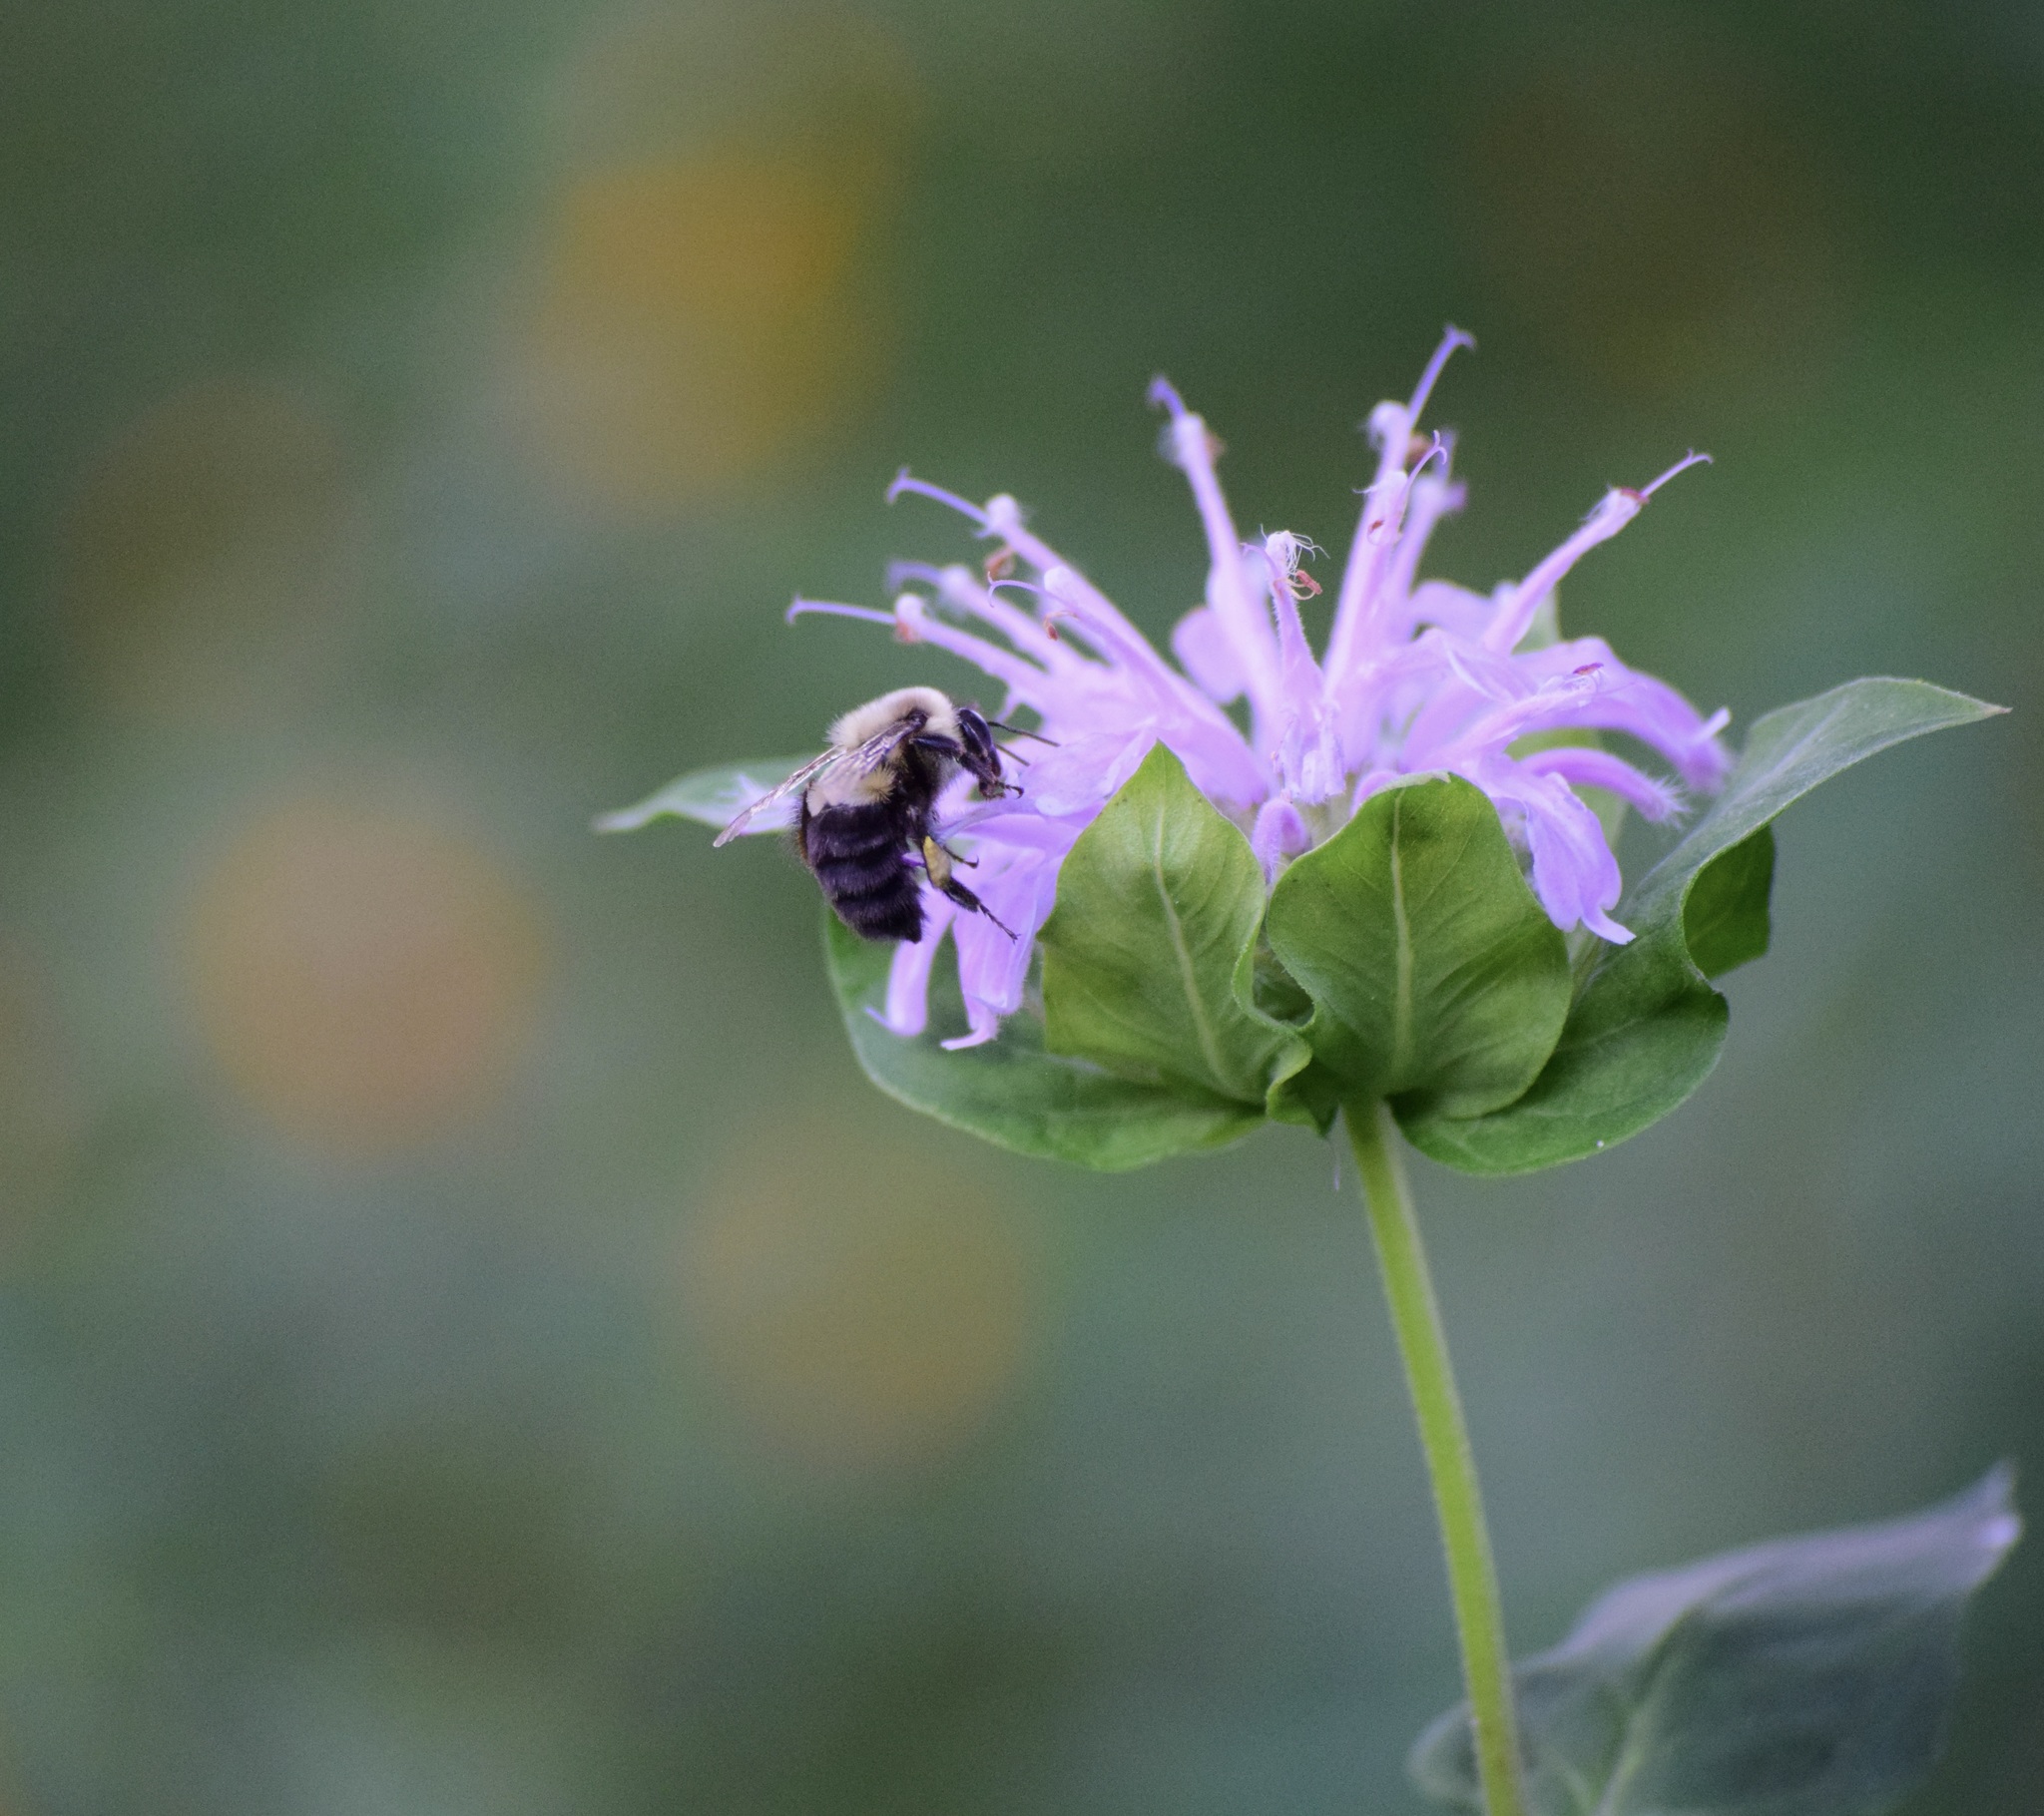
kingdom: Animalia
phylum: Arthropoda
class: Insecta
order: Hymenoptera
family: Apidae
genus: Bombus
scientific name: Bombus impatiens
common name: Common eastern bumble bee
